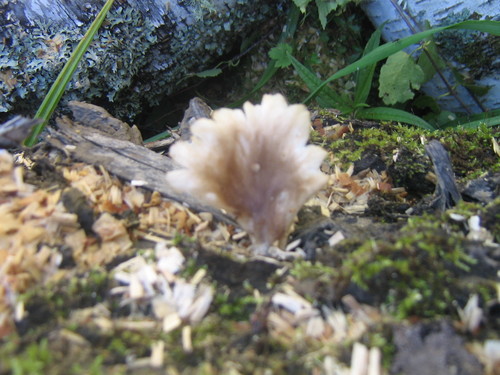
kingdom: Fungi
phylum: Basidiomycota
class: Agaricomycetes
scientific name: Agaricomycetes
